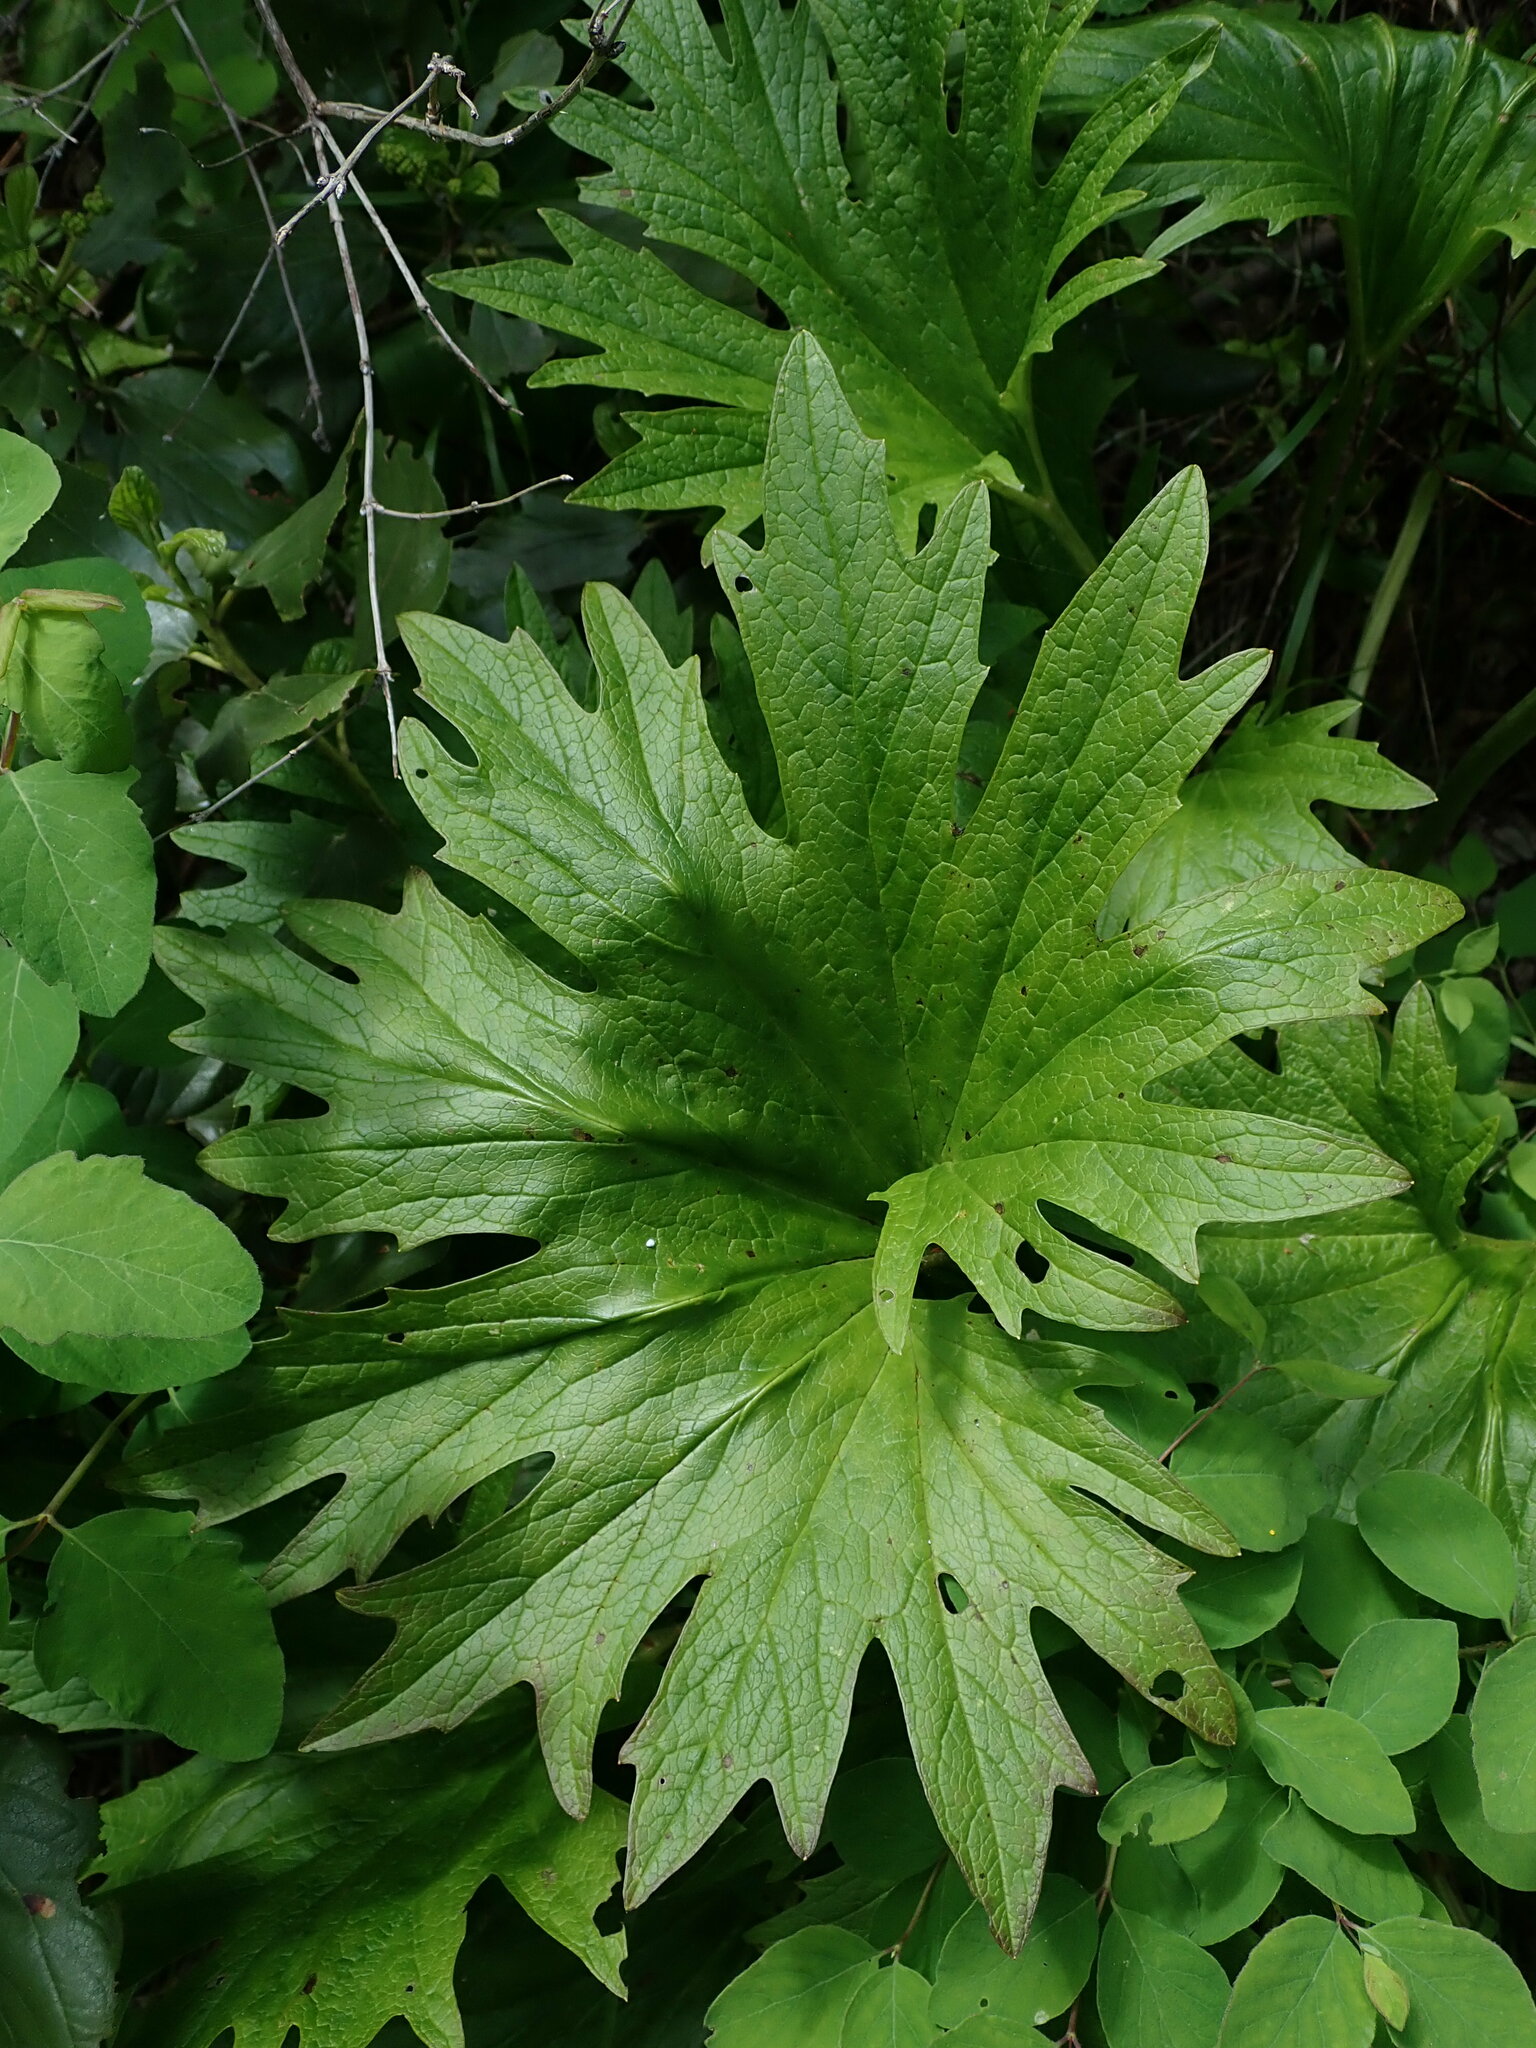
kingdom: Plantae
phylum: Tracheophyta
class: Magnoliopsida
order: Asterales
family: Asteraceae
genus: Cacaliopsis
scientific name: Cacaliopsis nardosmia
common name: Silvercrown
